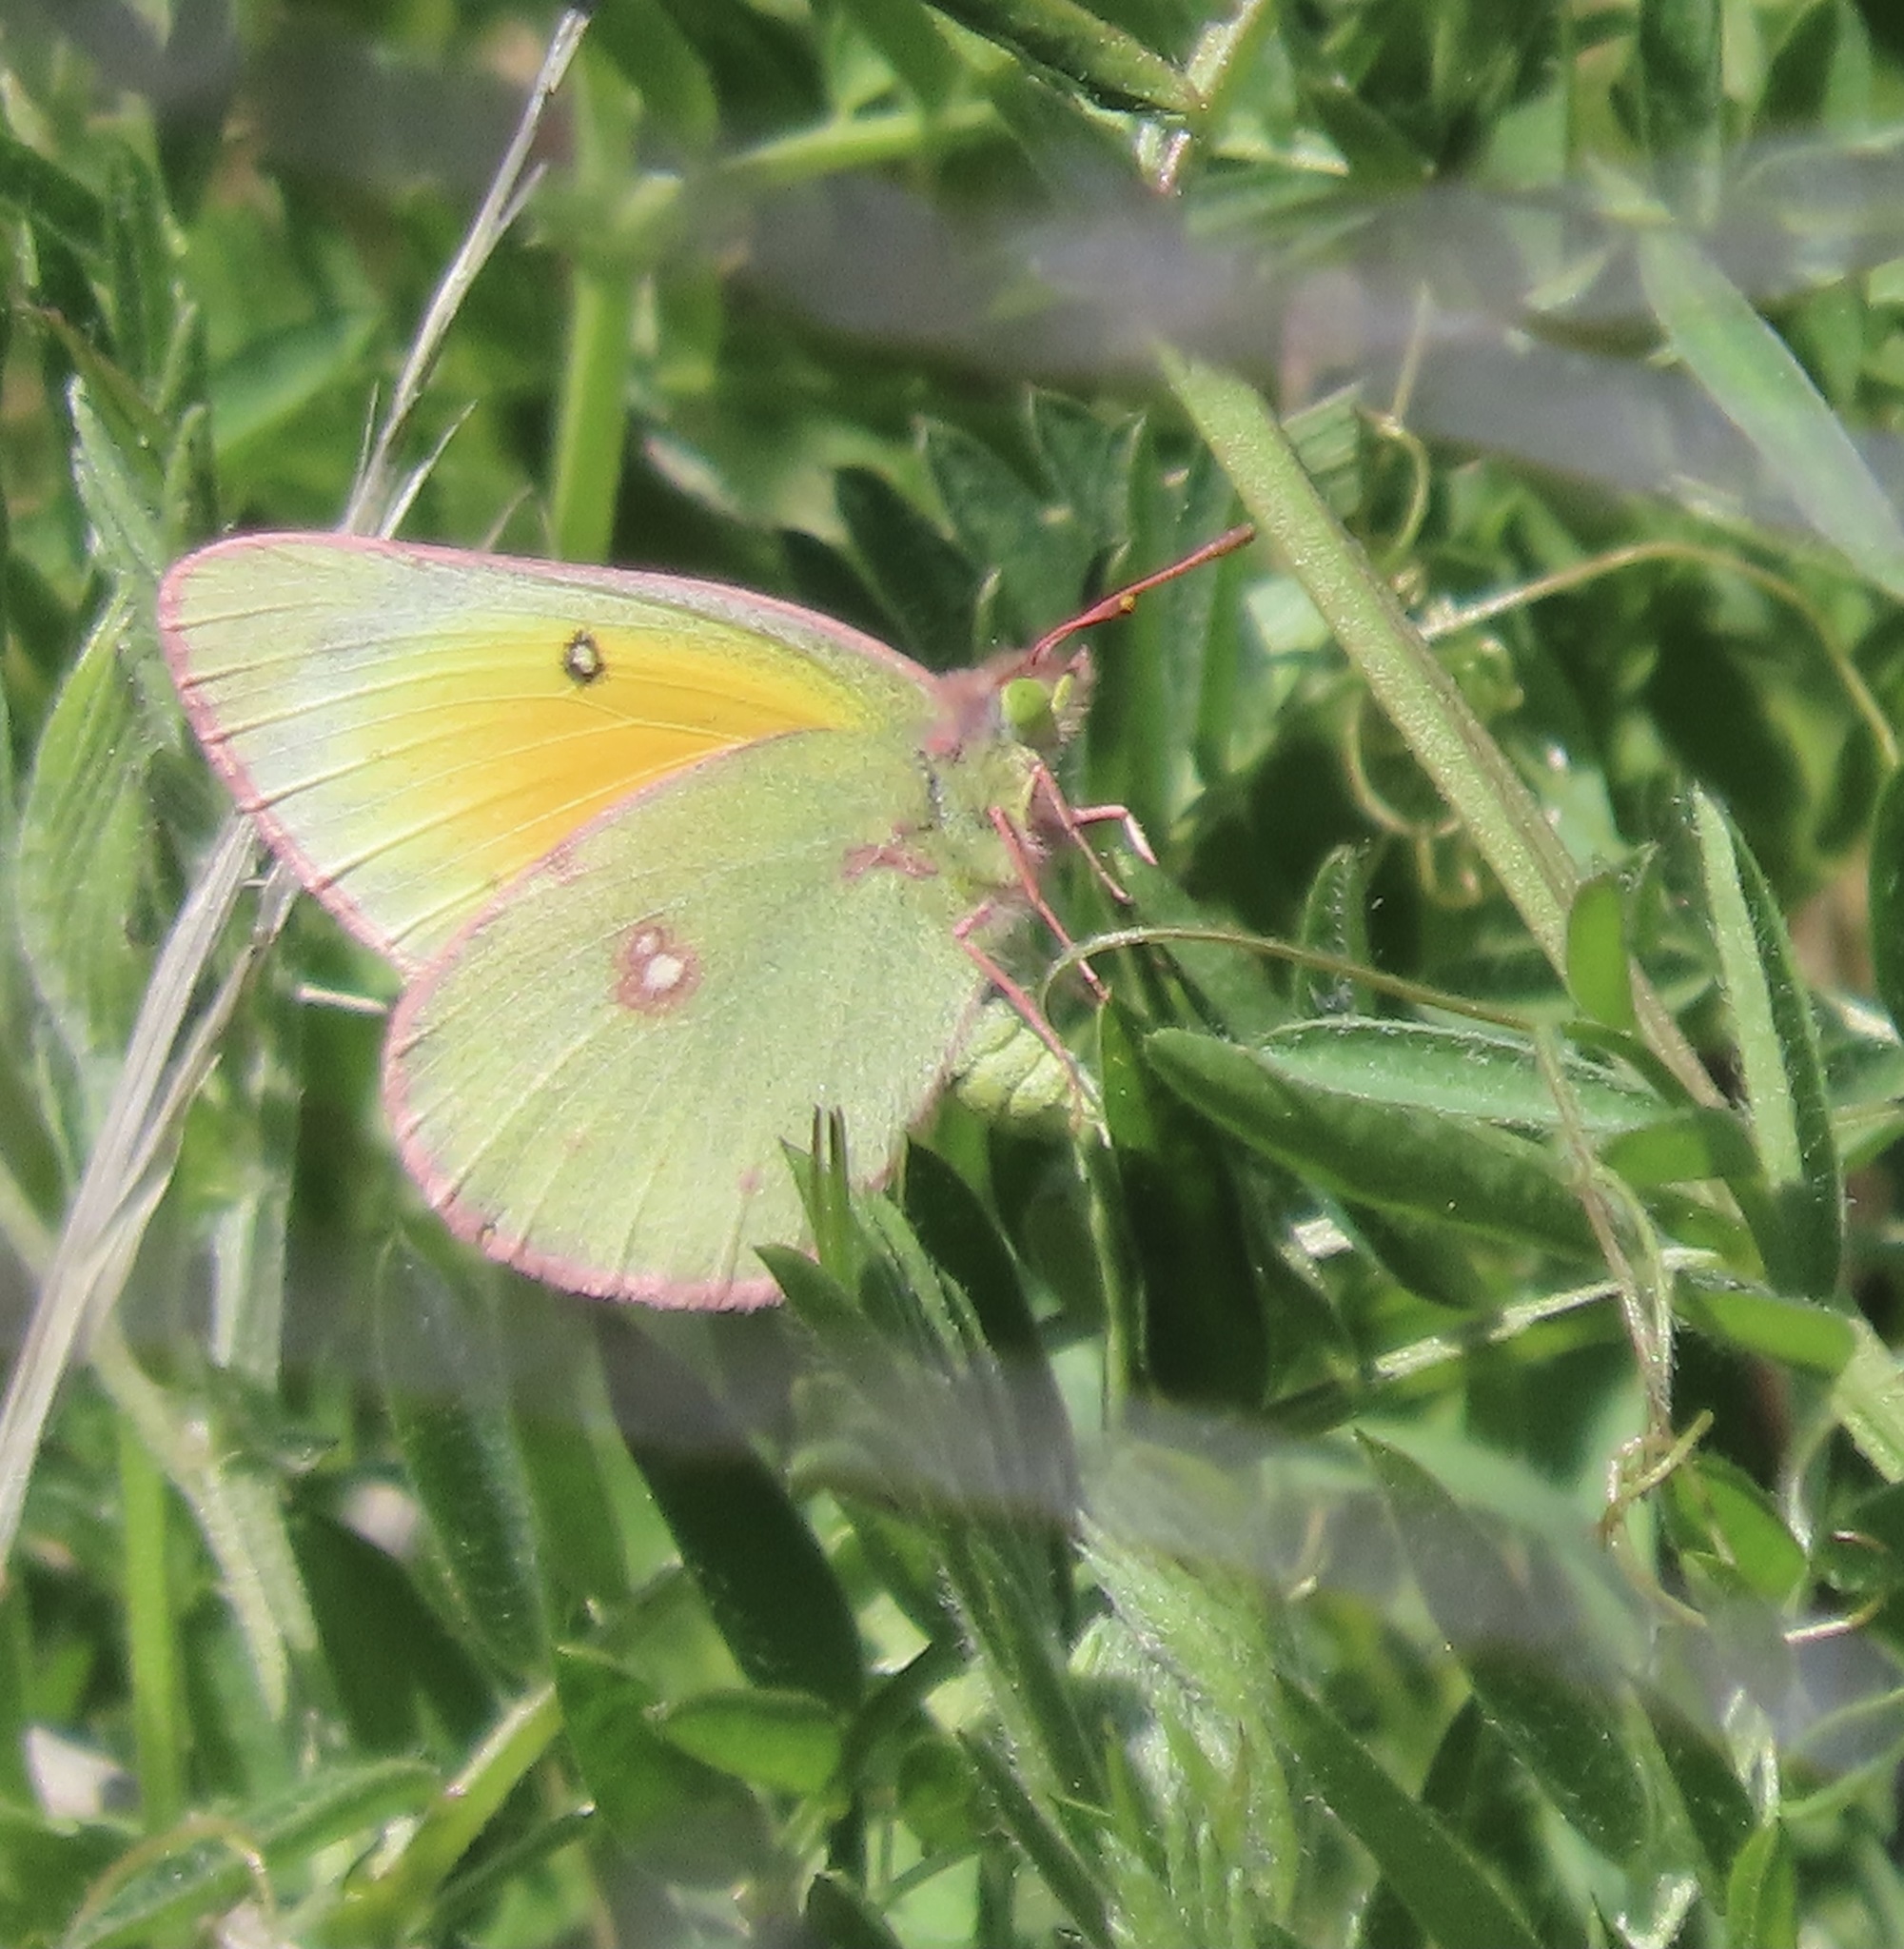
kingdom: Animalia
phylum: Arthropoda
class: Insecta
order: Lepidoptera
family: Pieridae
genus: Colias
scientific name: Colias eurytheme
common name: Alfalfa butterfly
